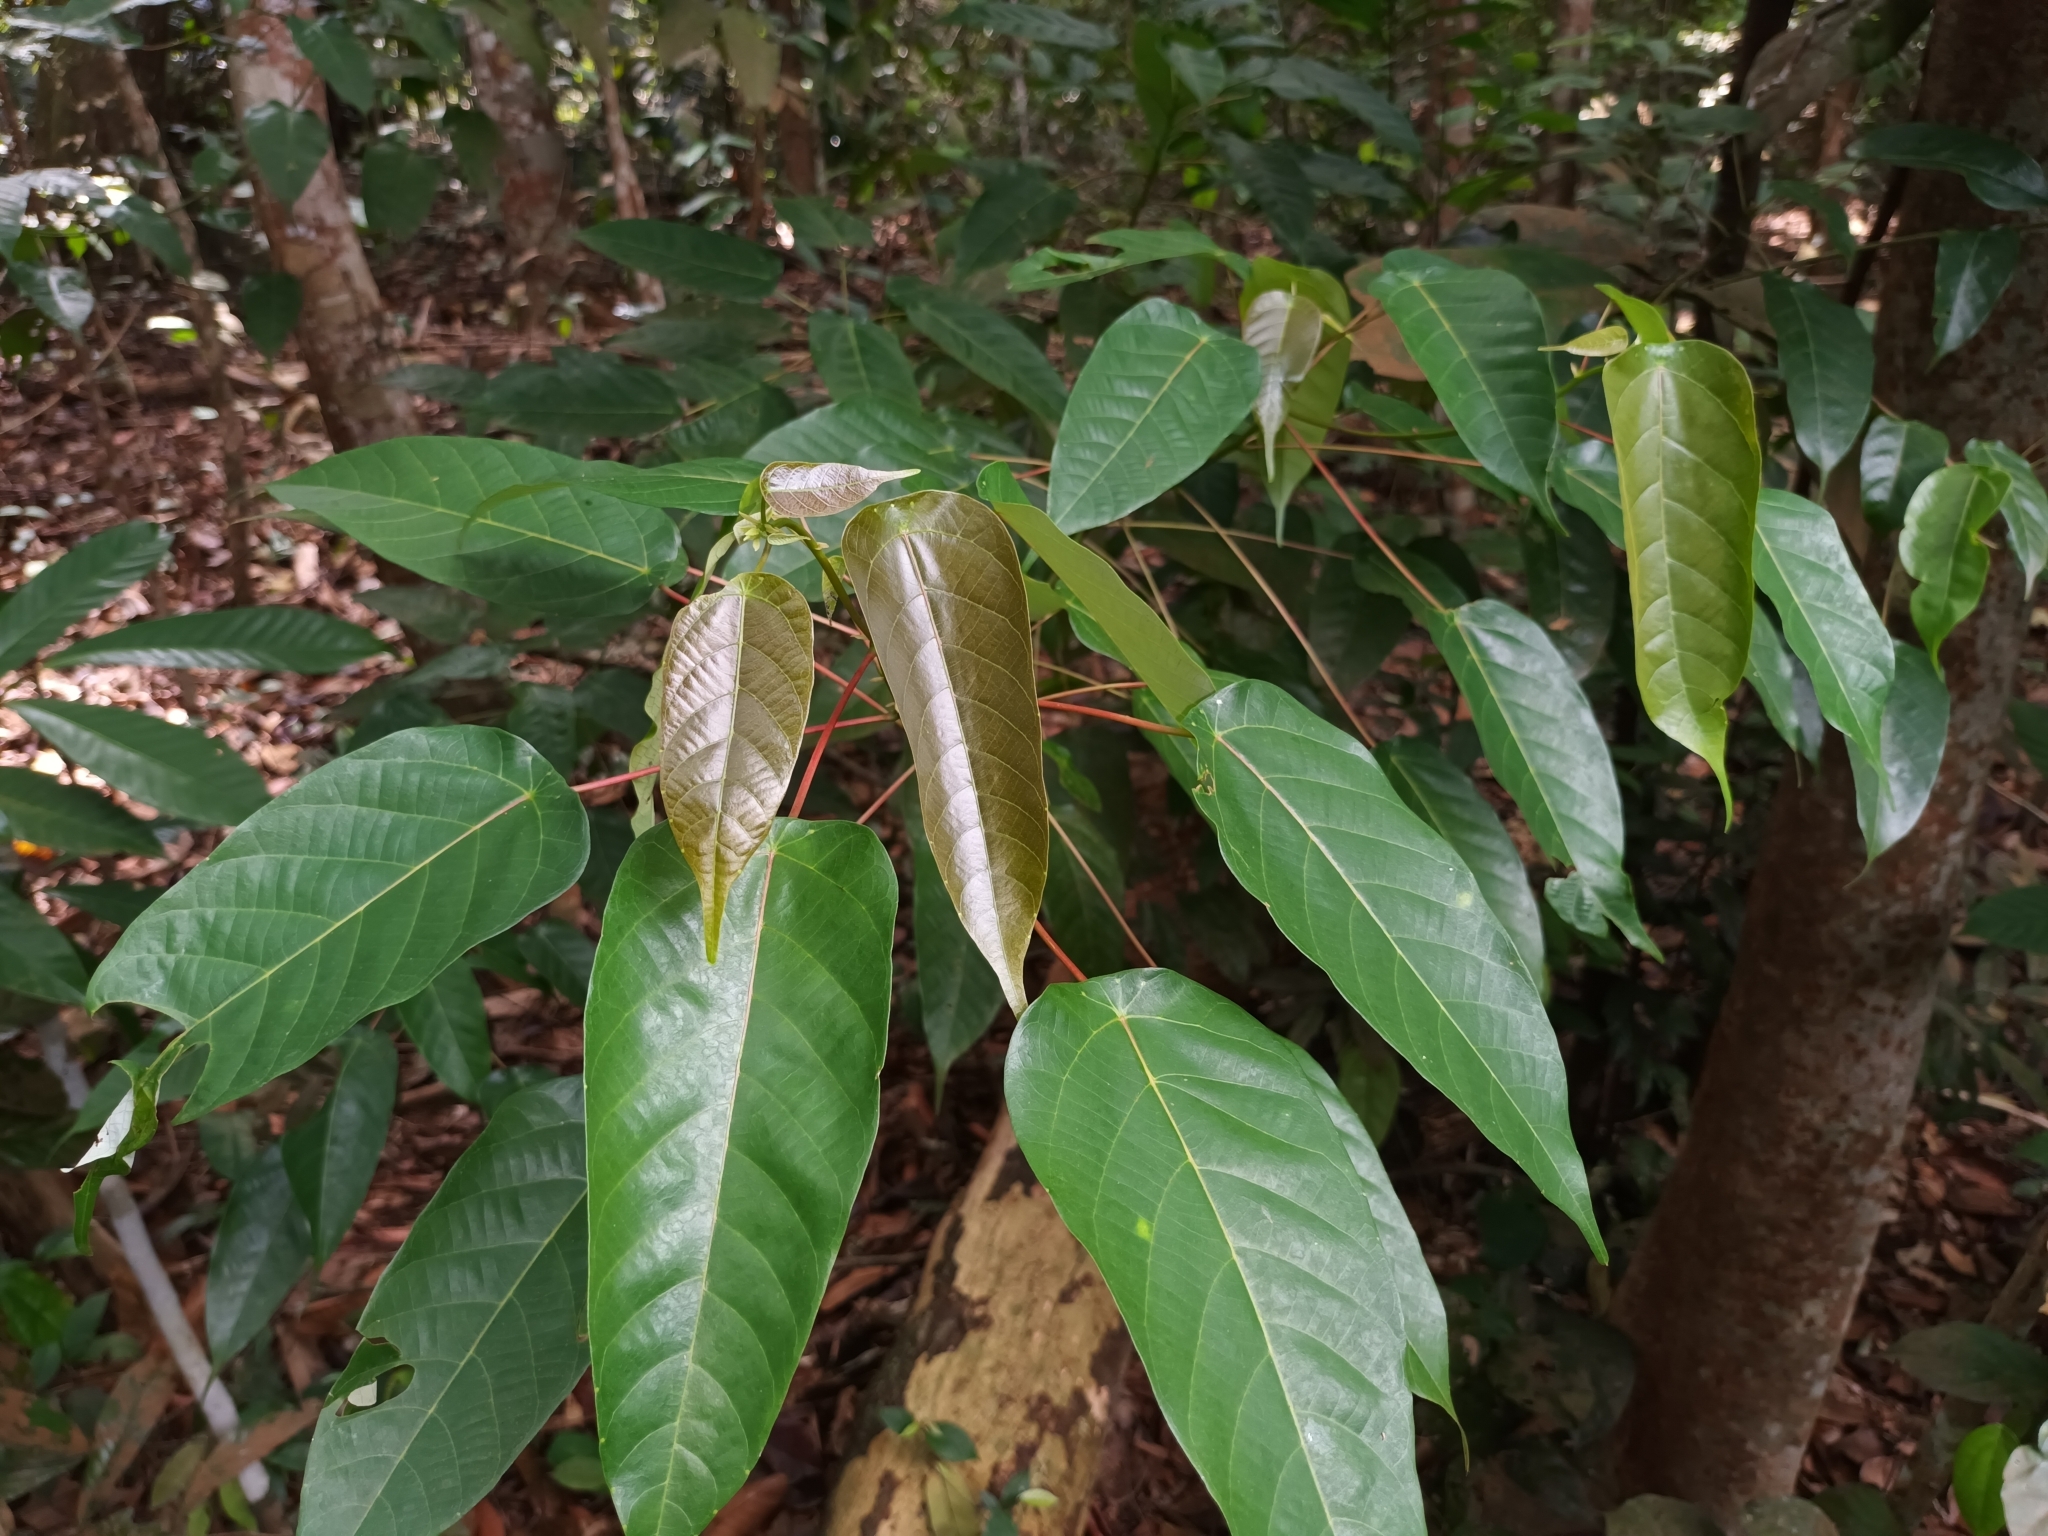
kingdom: Plantae
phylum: Tracheophyta
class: Magnoliopsida
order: Malpighiales
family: Euphorbiaceae
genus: Macaranga
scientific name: Macaranga hullettii
